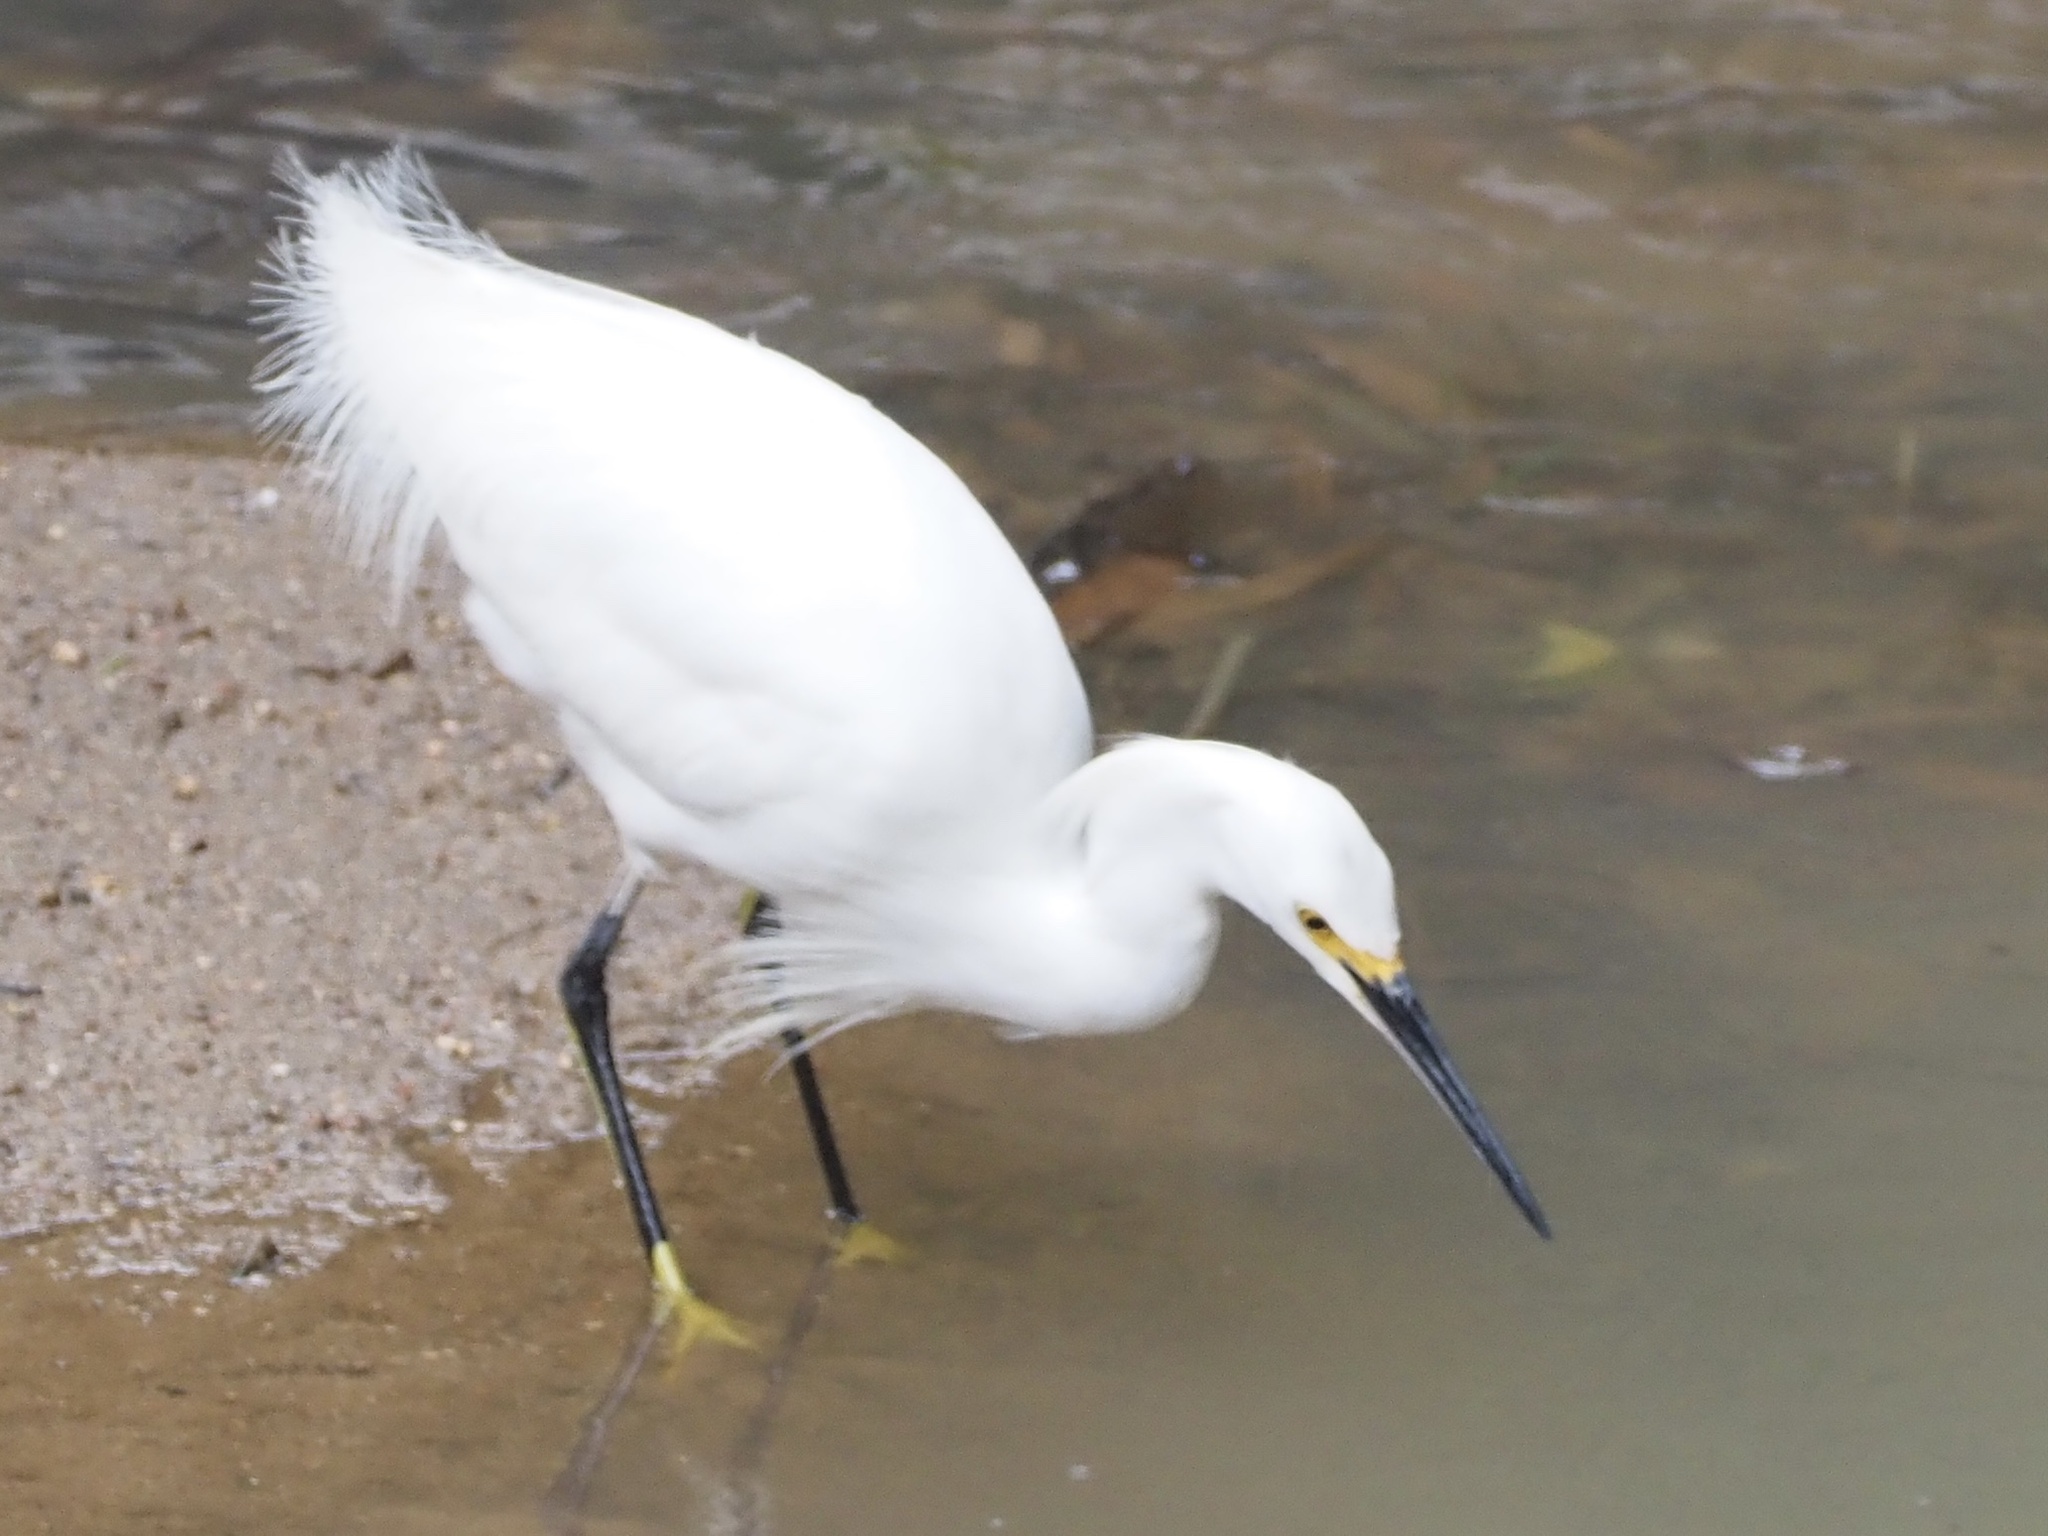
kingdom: Animalia
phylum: Chordata
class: Aves
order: Pelecaniformes
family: Ardeidae
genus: Egretta
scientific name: Egretta thula
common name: Snowy egret
